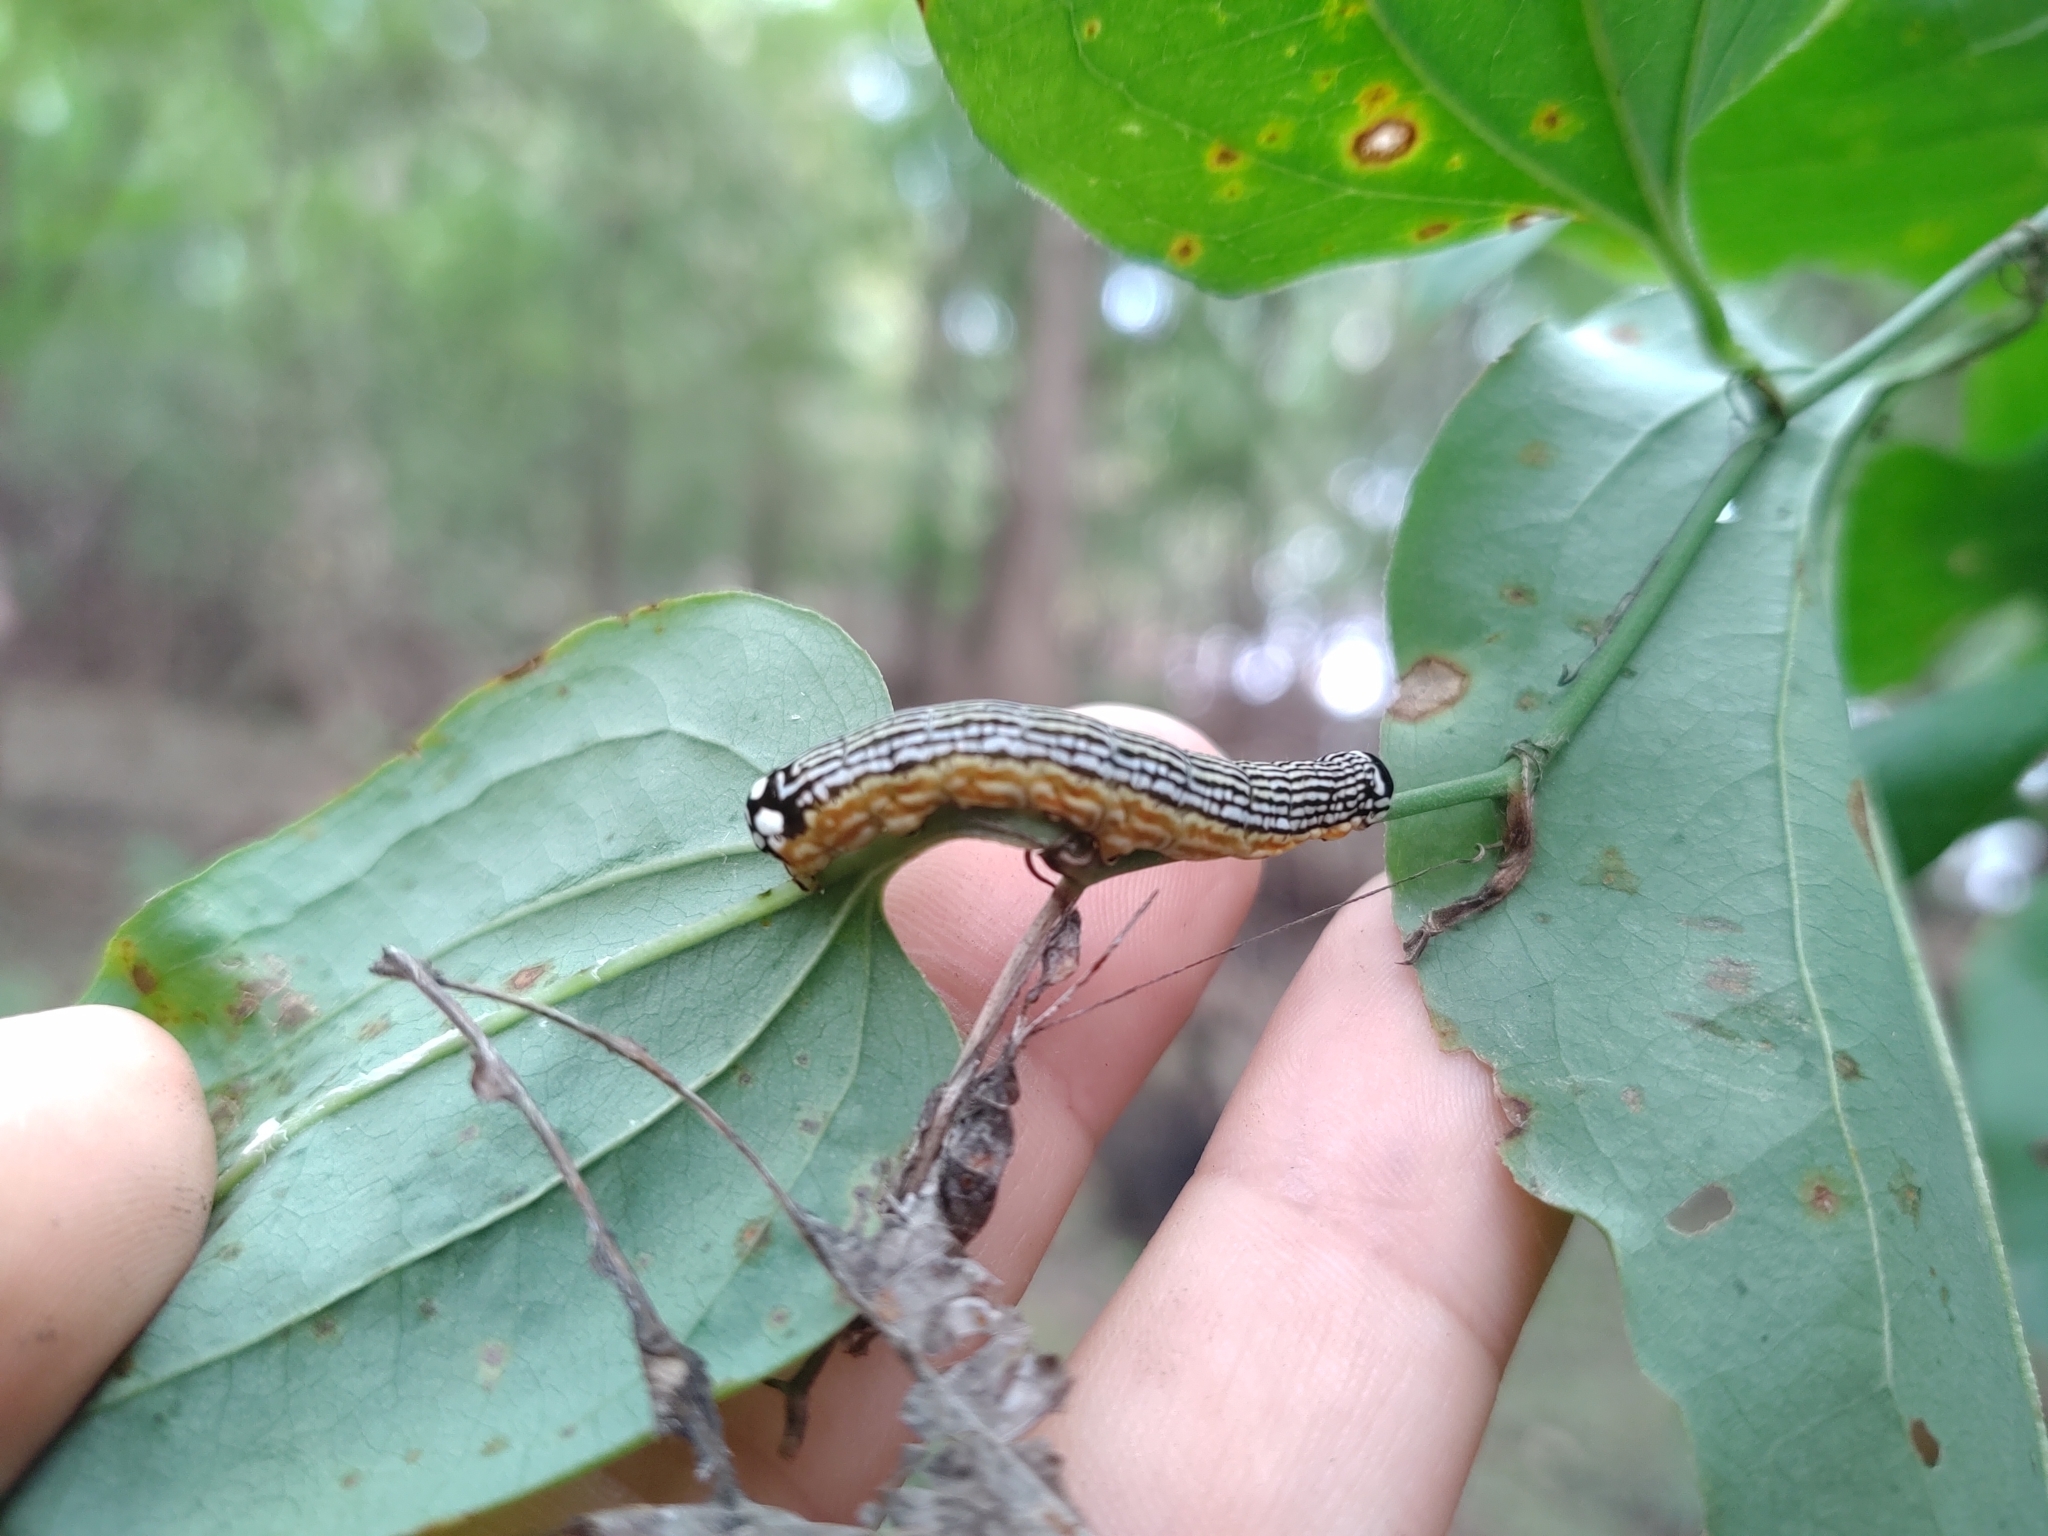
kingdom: Animalia
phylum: Arthropoda
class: Insecta
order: Lepidoptera
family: Noctuidae
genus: Phosphila
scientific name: Phosphila turbulenta
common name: Turbulent phosphila moth
